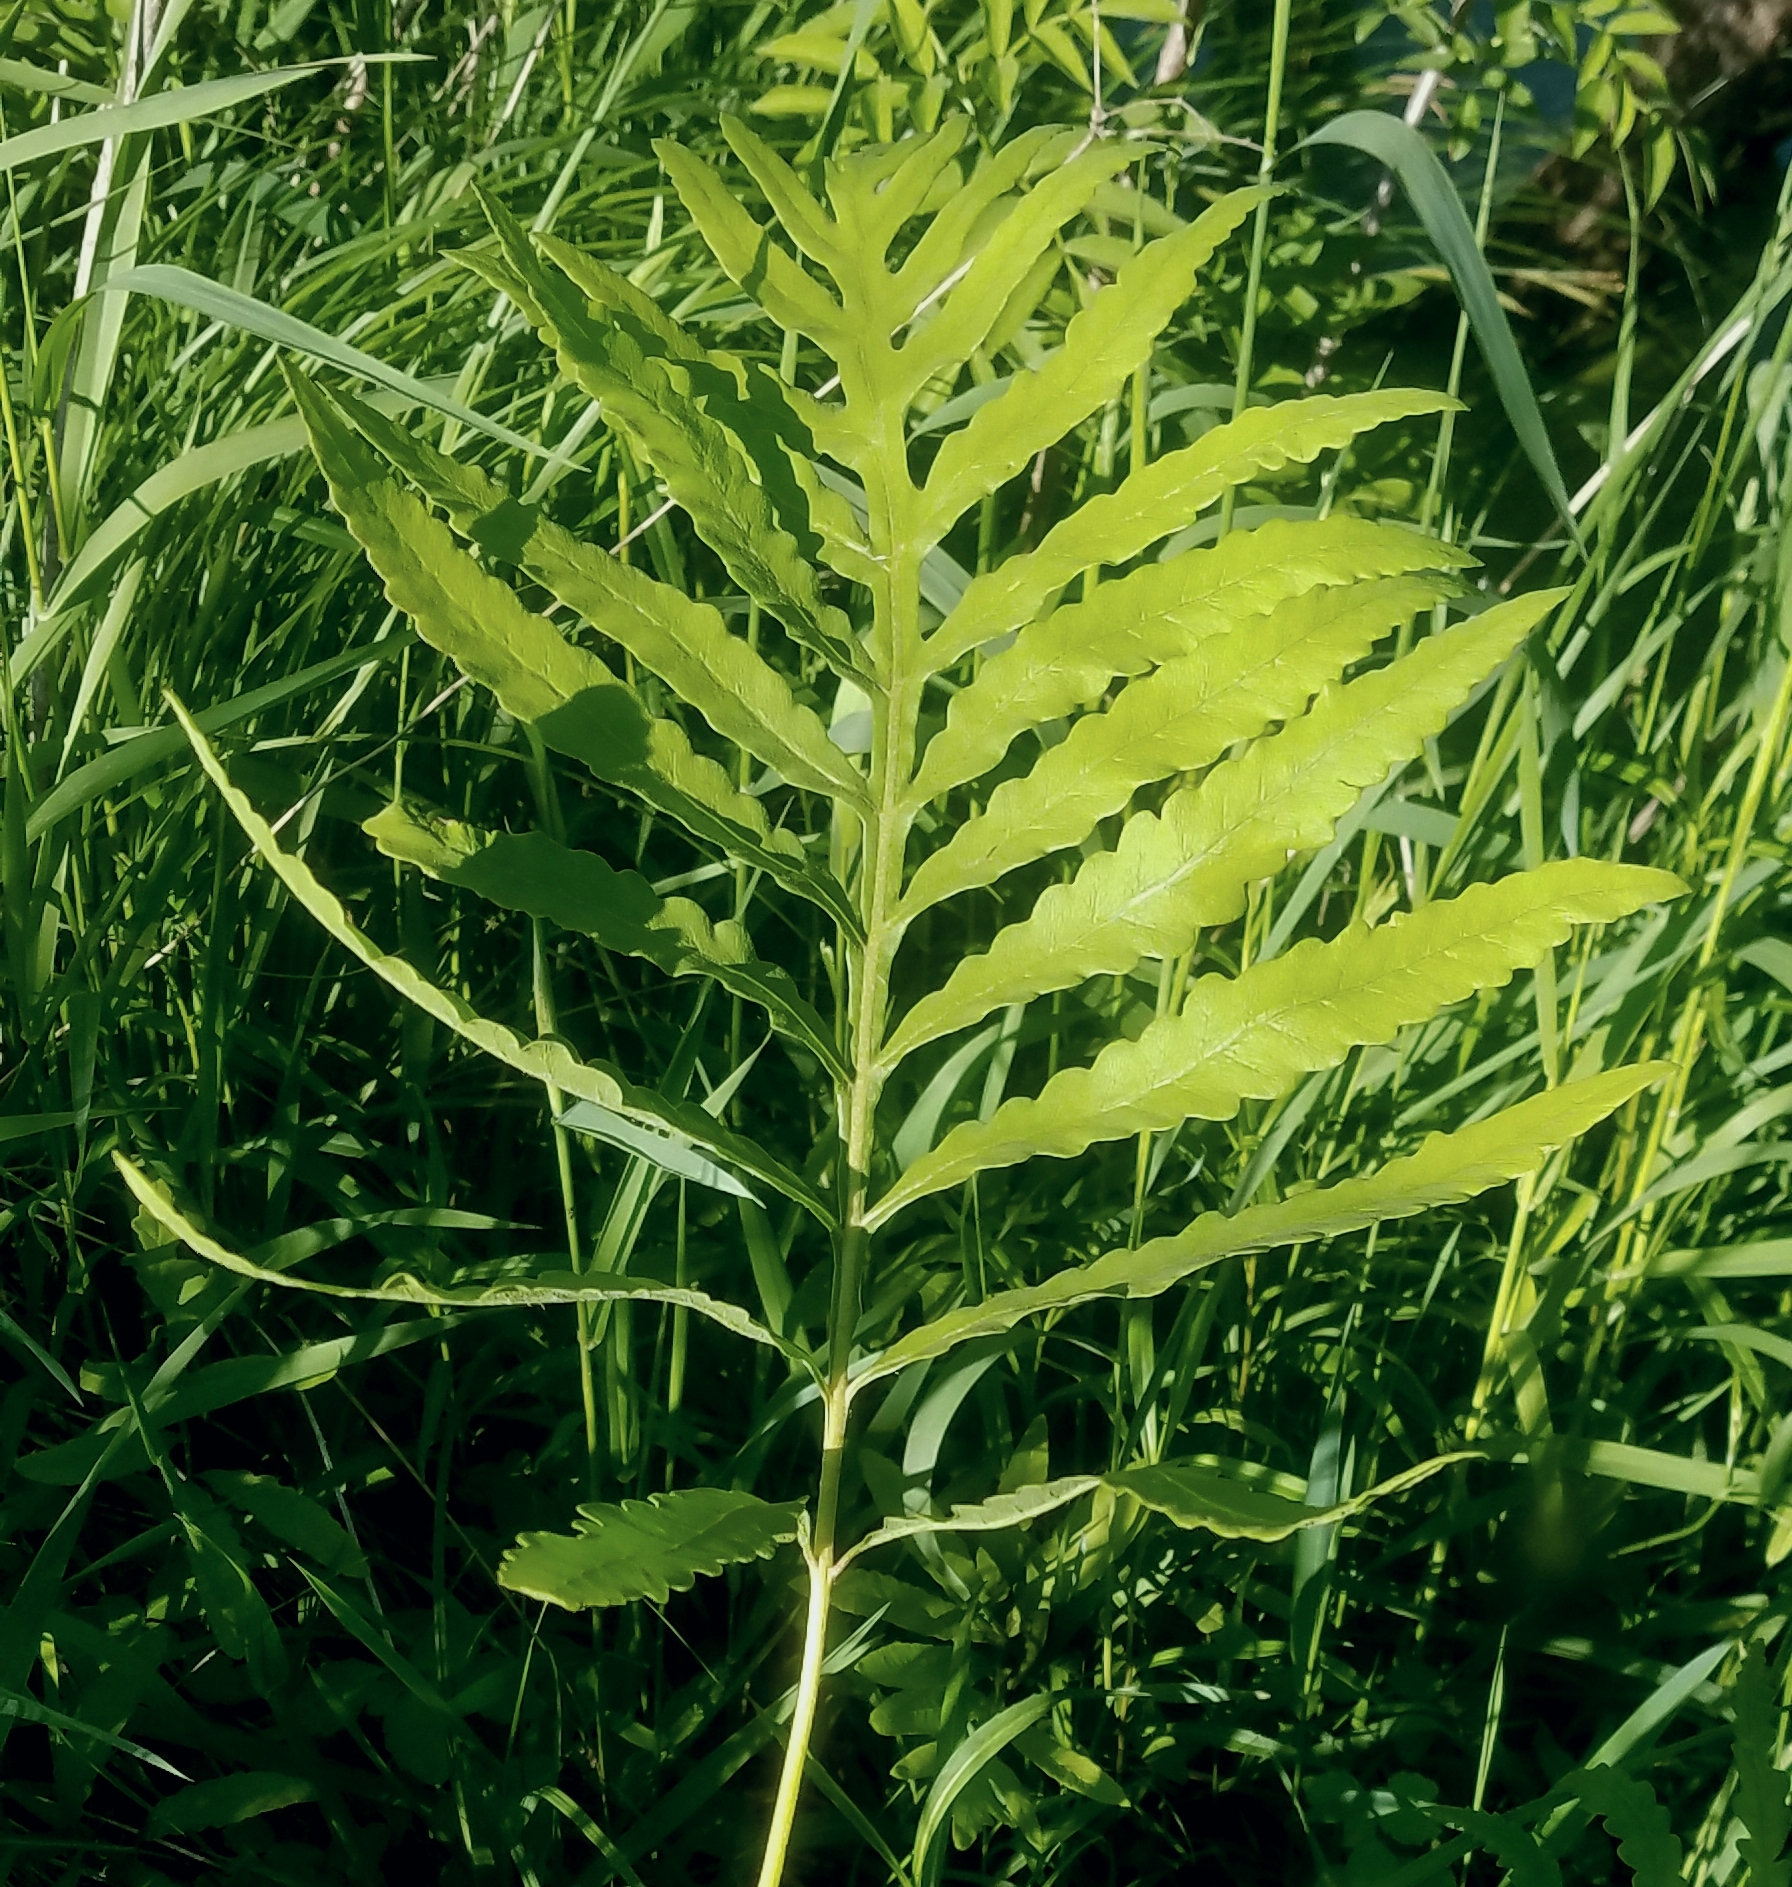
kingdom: Plantae
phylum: Tracheophyta
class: Polypodiopsida
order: Polypodiales
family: Onocleaceae
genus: Onoclea
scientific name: Onoclea sensibilis
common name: Sensitive fern
